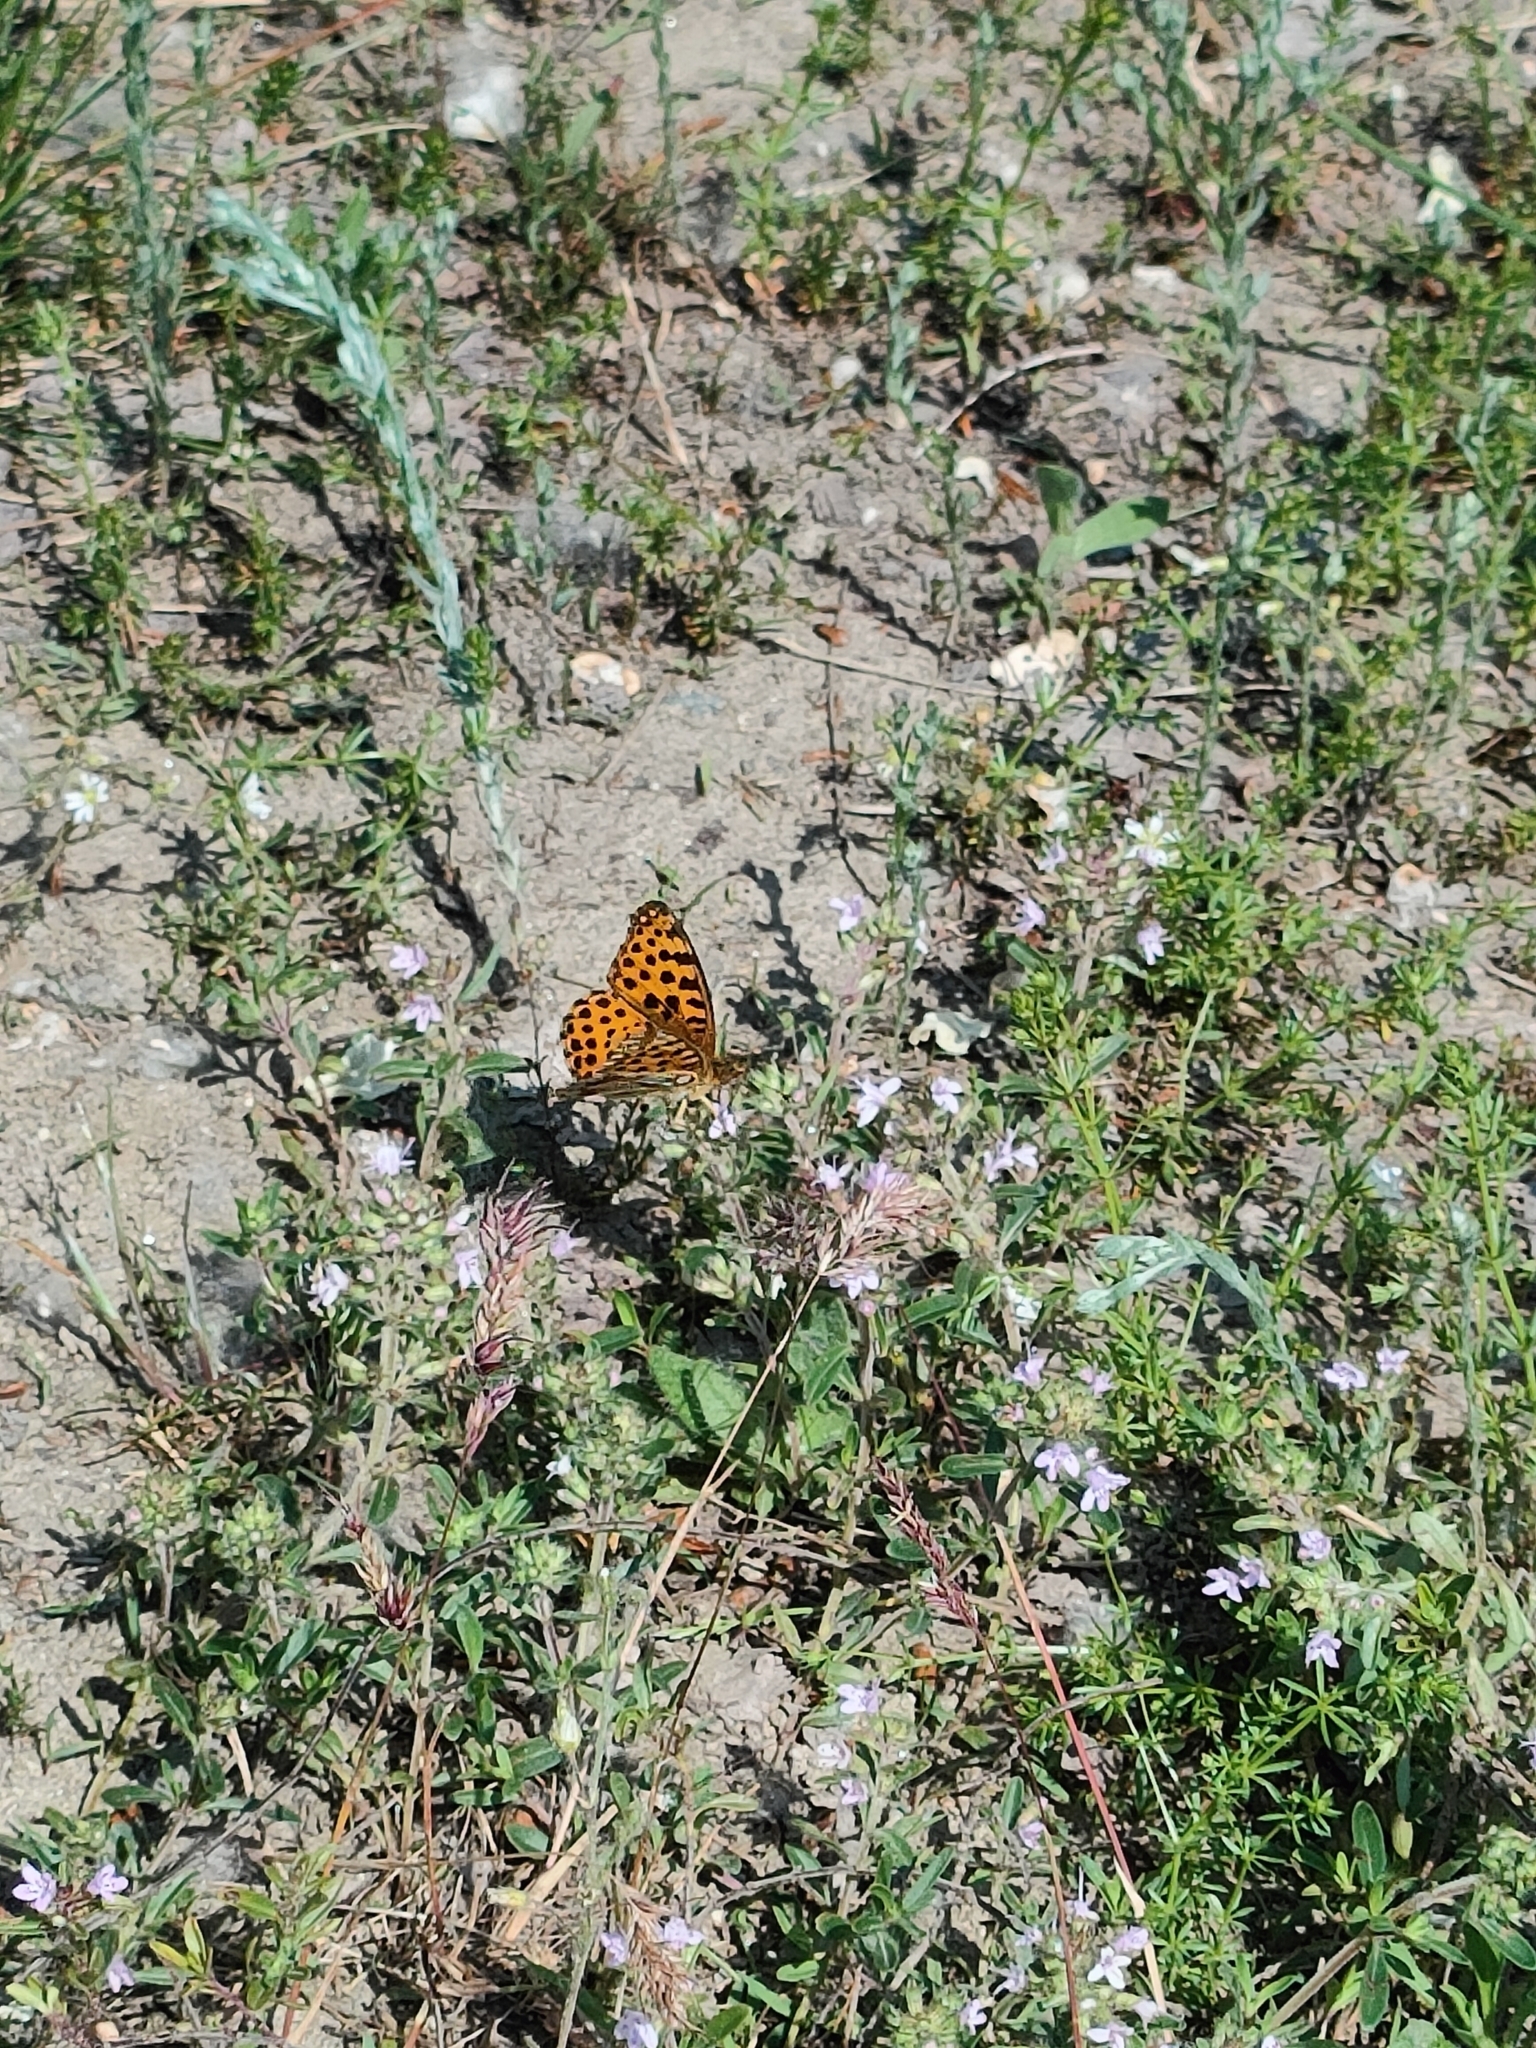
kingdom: Animalia
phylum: Arthropoda
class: Insecta
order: Lepidoptera
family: Nymphalidae
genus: Issoria
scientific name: Issoria lathonia
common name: Queen of spain fritillary
